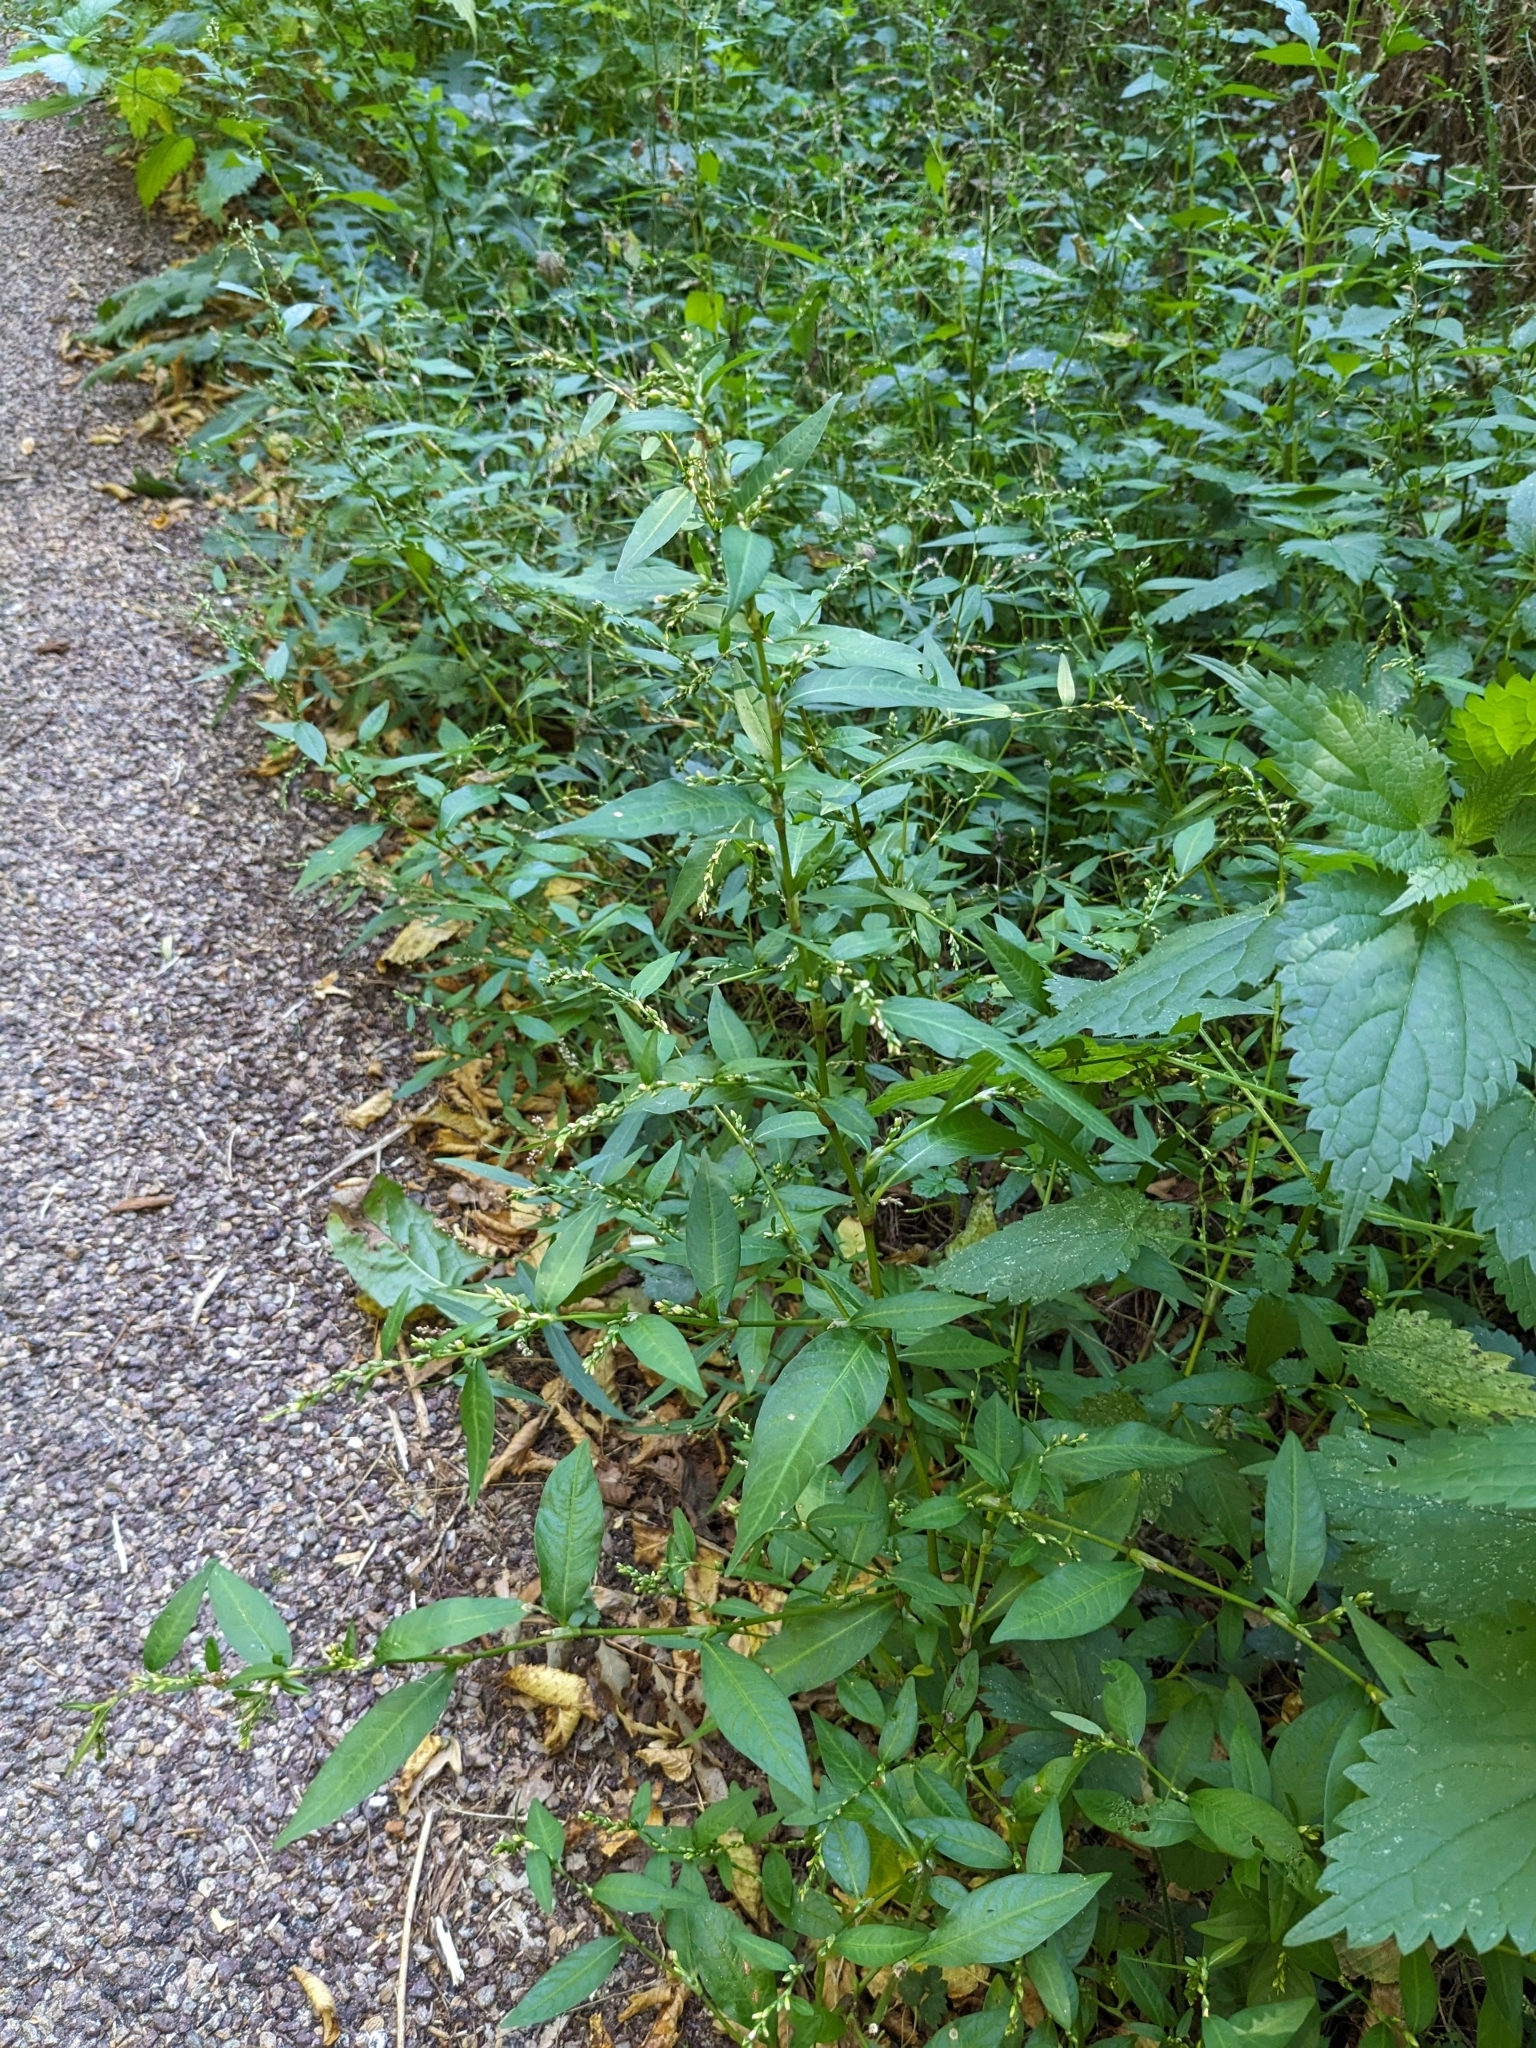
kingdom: Plantae
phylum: Tracheophyta
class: Magnoliopsida
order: Caryophyllales
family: Polygonaceae
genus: Persicaria
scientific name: Persicaria hydropiper
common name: Water-pepper
